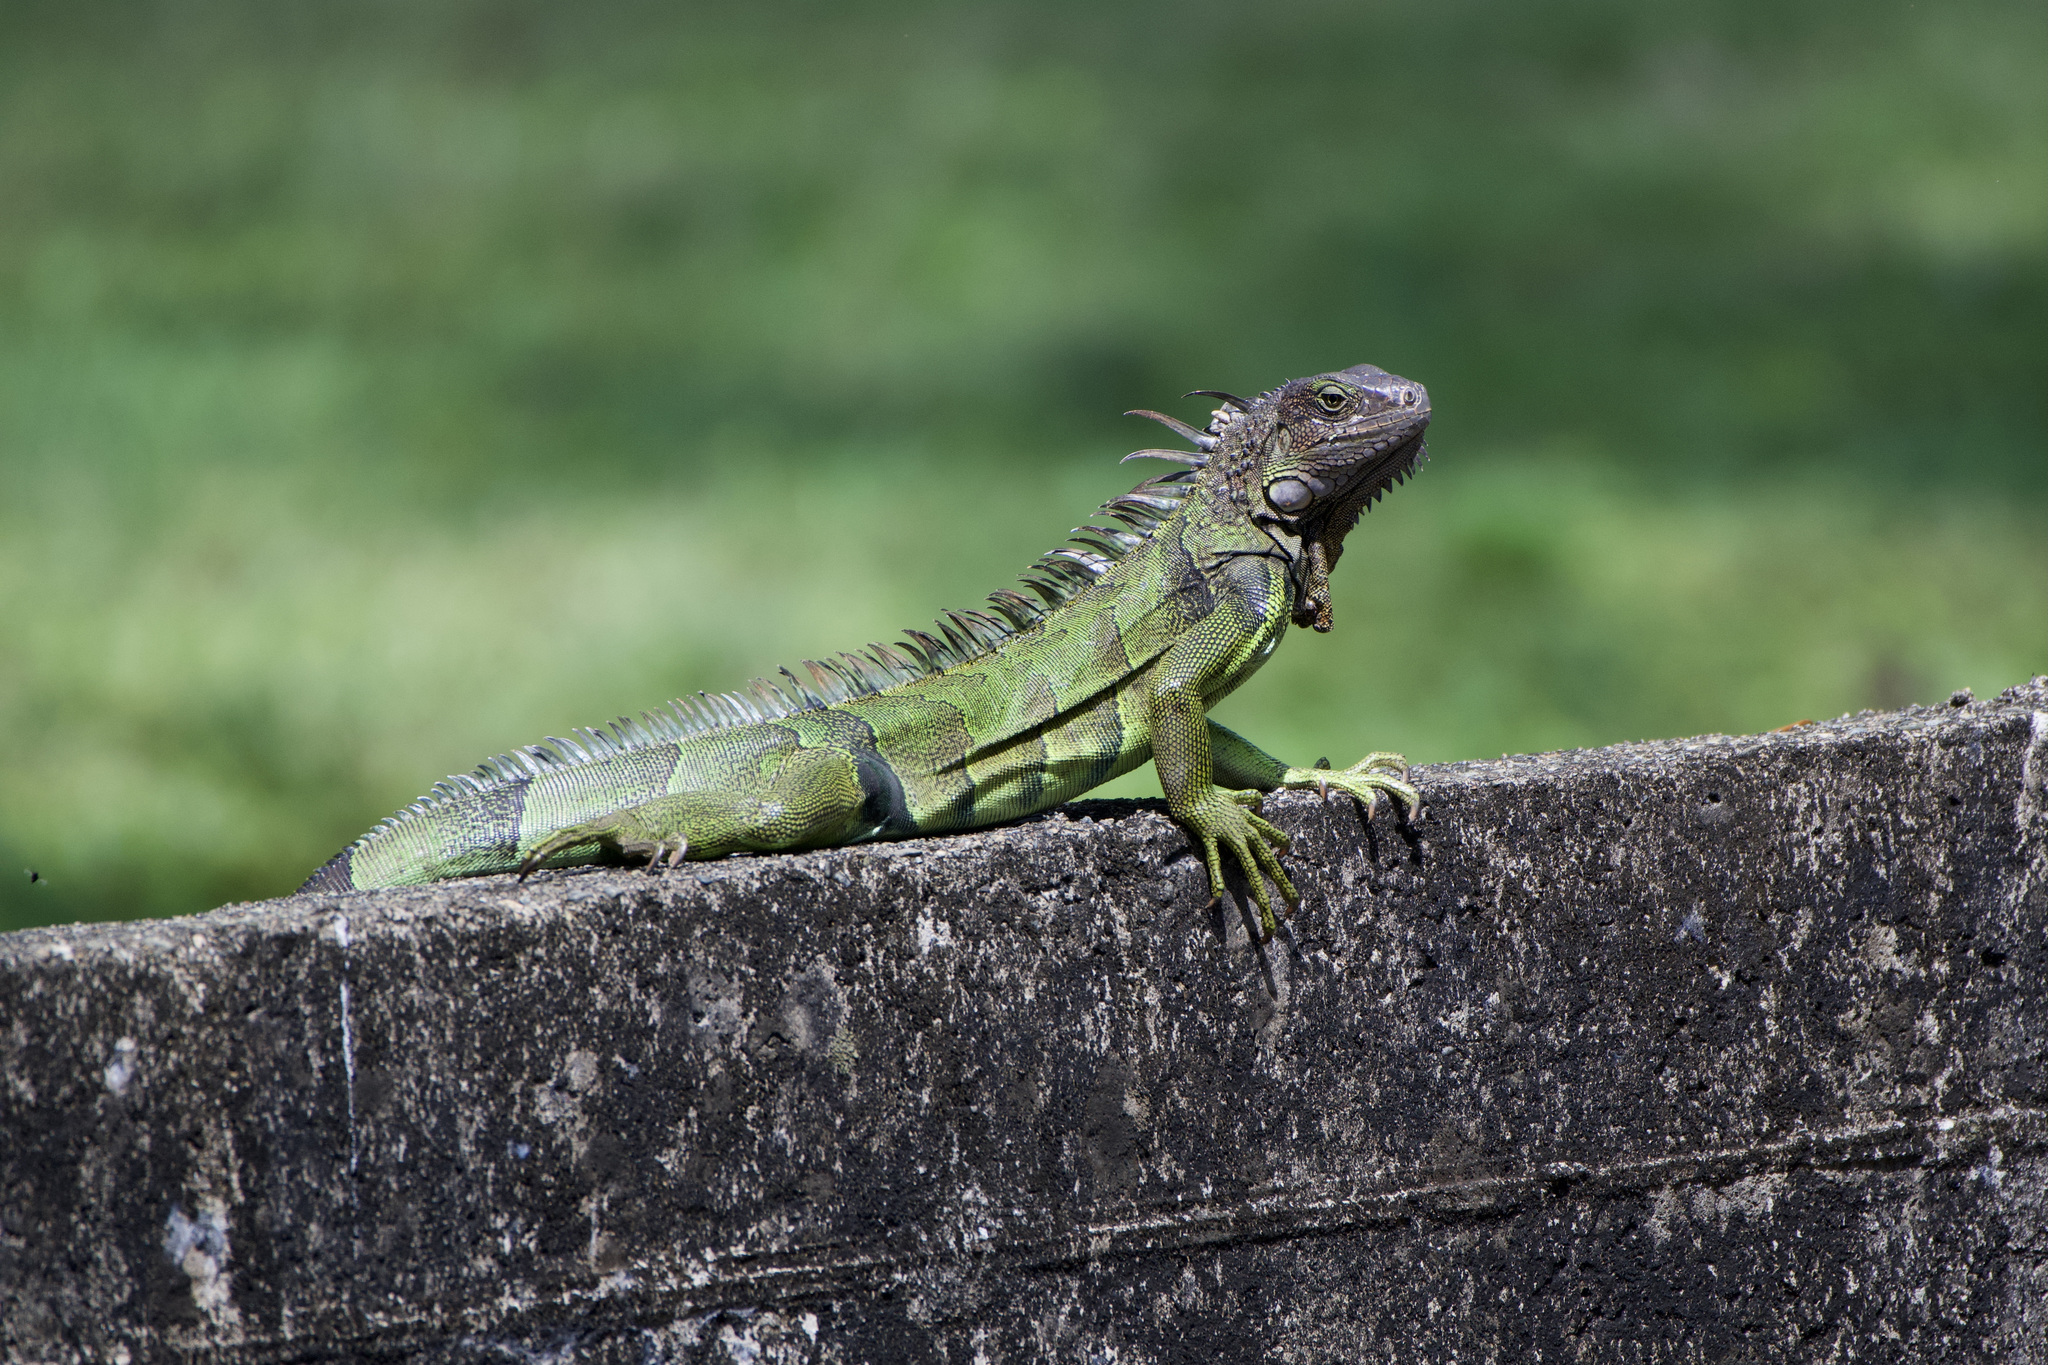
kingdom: Animalia
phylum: Chordata
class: Squamata
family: Iguanidae
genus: Iguana
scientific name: Iguana iguana
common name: Green iguana
